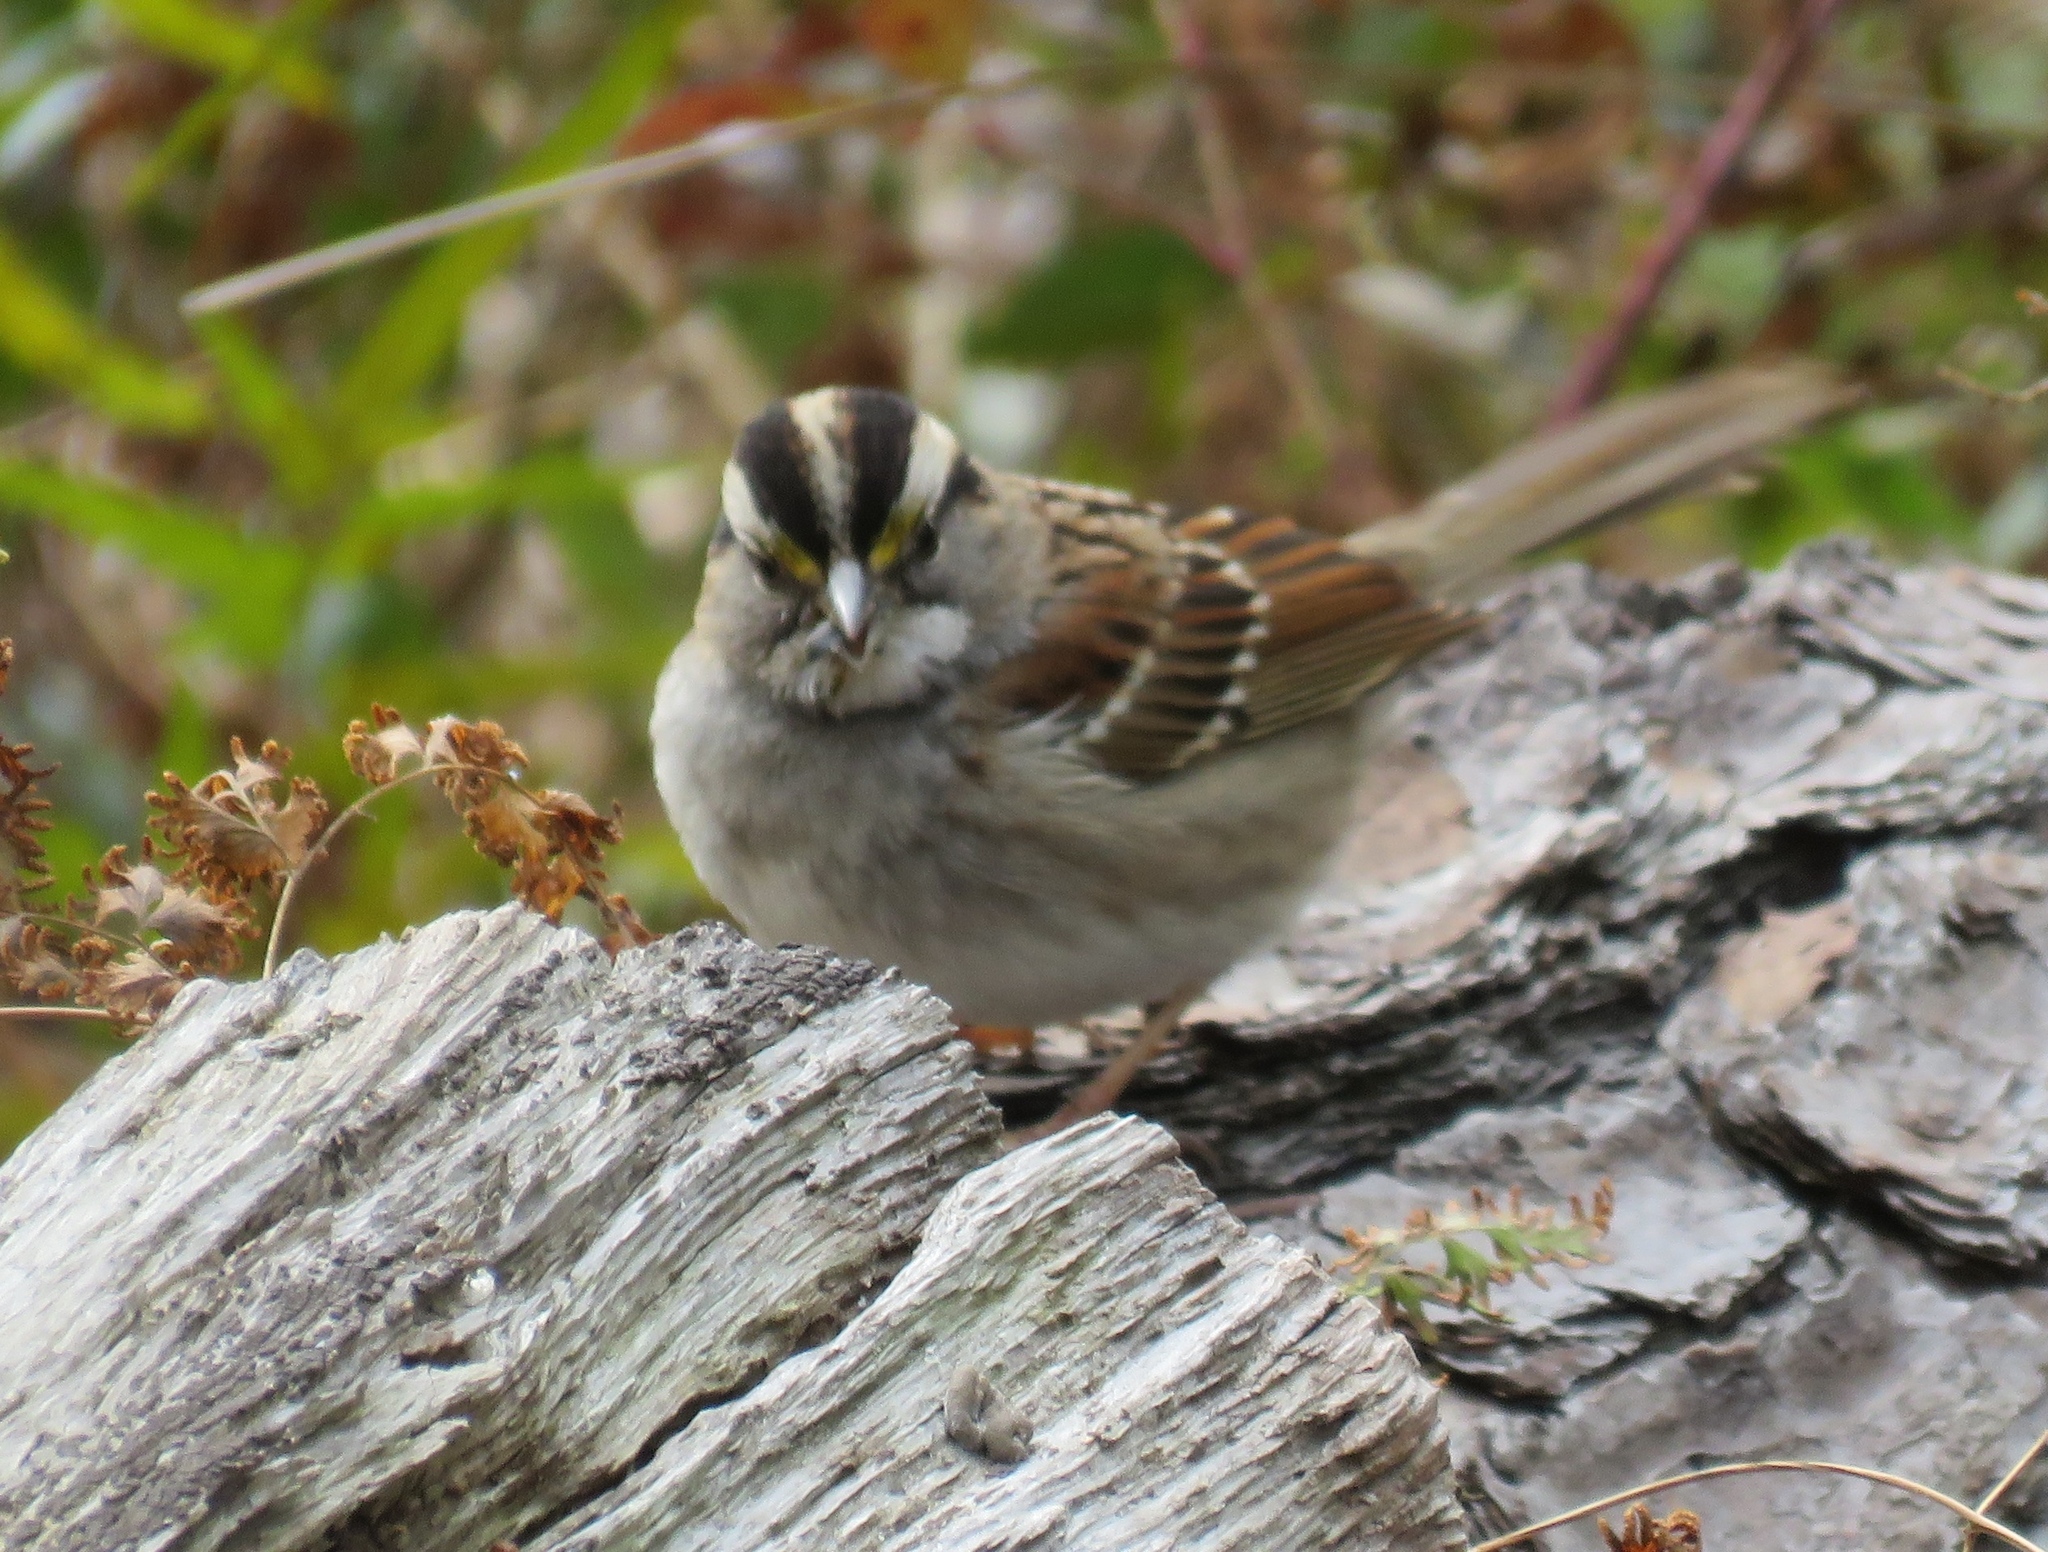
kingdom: Animalia
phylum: Chordata
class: Aves
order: Passeriformes
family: Passerellidae
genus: Zonotrichia
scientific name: Zonotrichia albicollis
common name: White-throated sparrow
